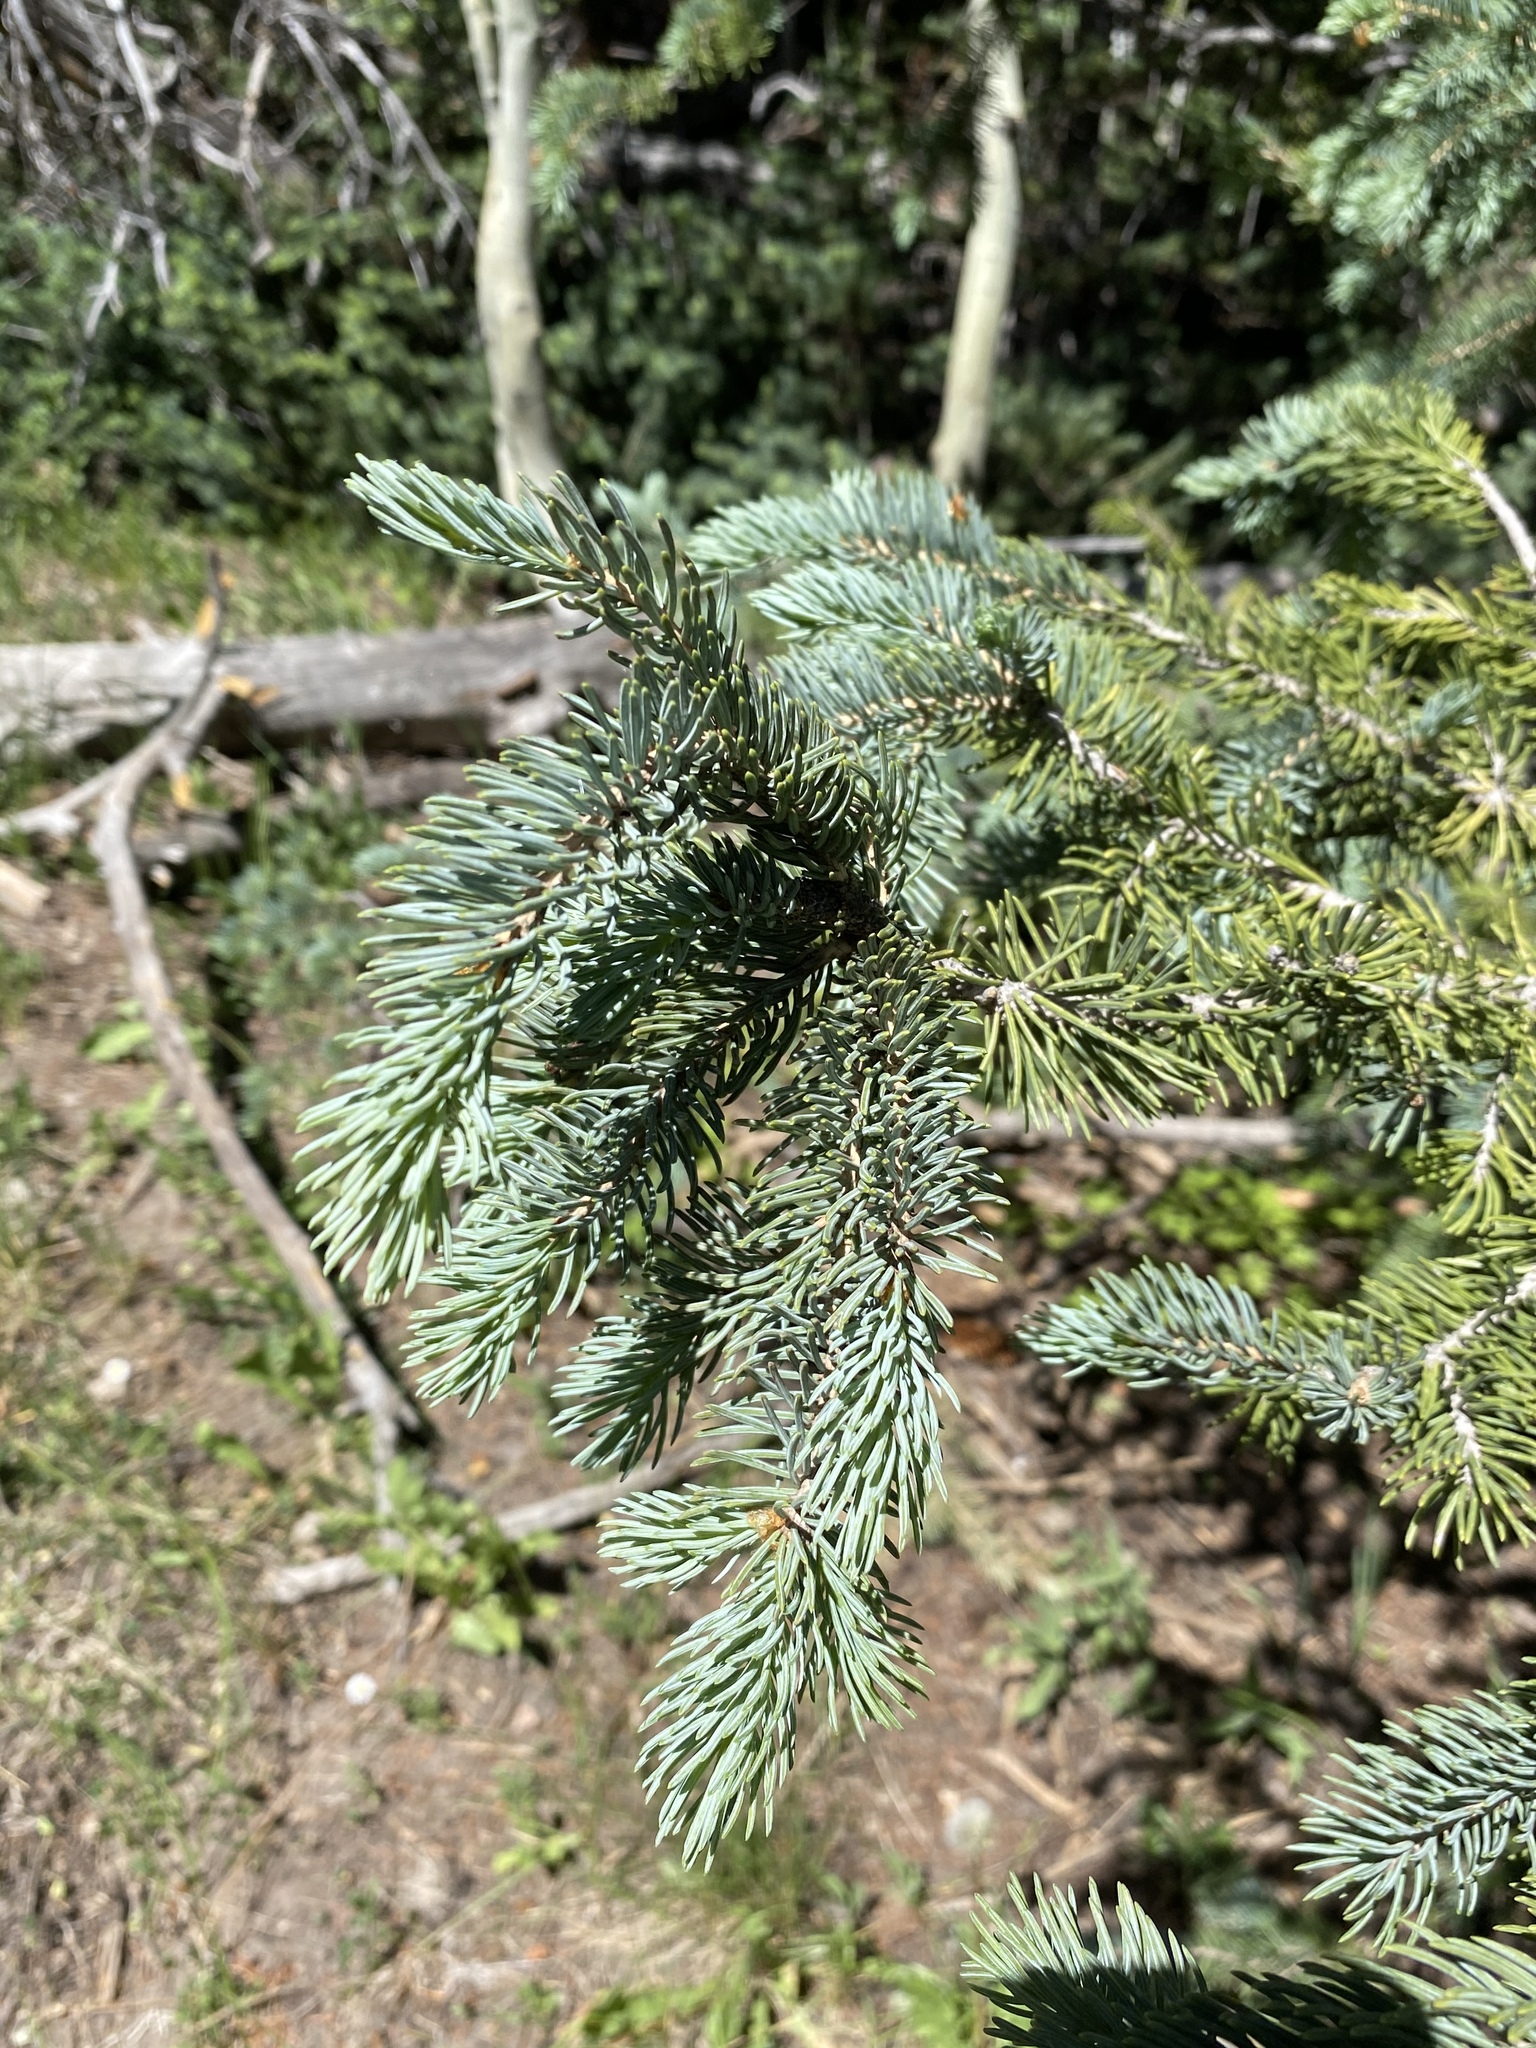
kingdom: Plantae
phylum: Tracheophyta
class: Pinopsida
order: Pinales
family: Pinaceae
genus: Picea
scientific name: Picea pungens
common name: Colorado spruce
